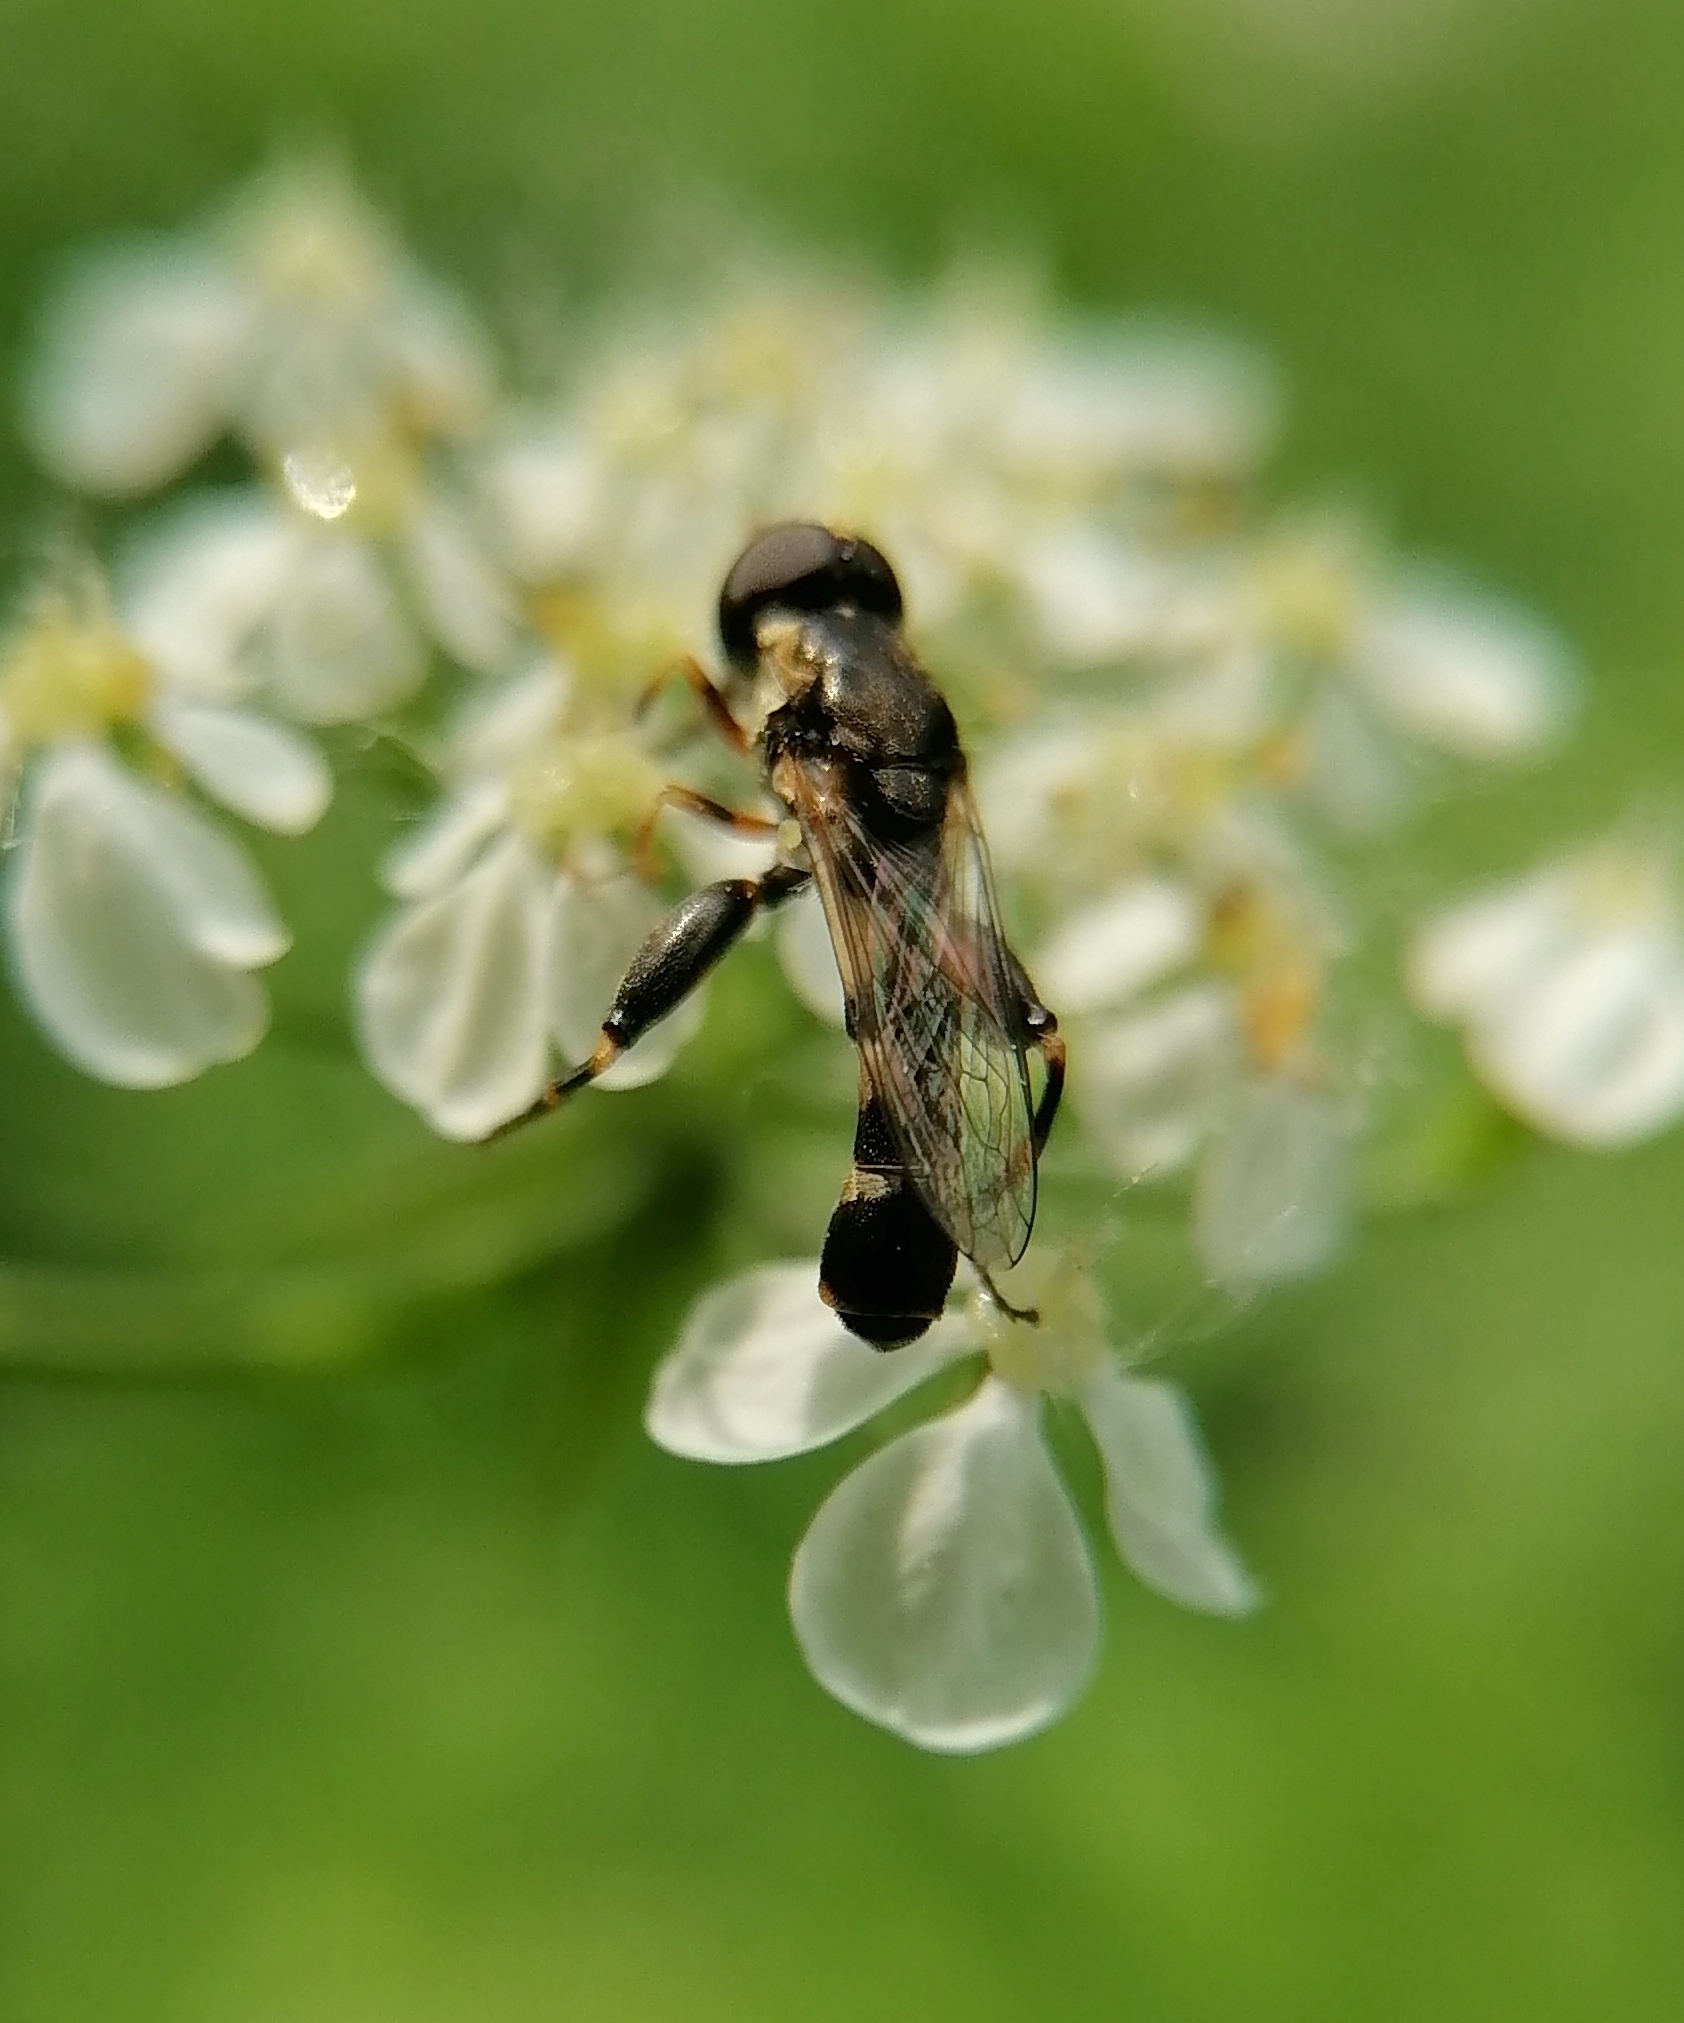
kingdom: Animalia
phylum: Arthropoda
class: Insecta
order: Diptera
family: Syrphidae
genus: Syritta
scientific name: Syritta pipiens
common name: Hover fly
